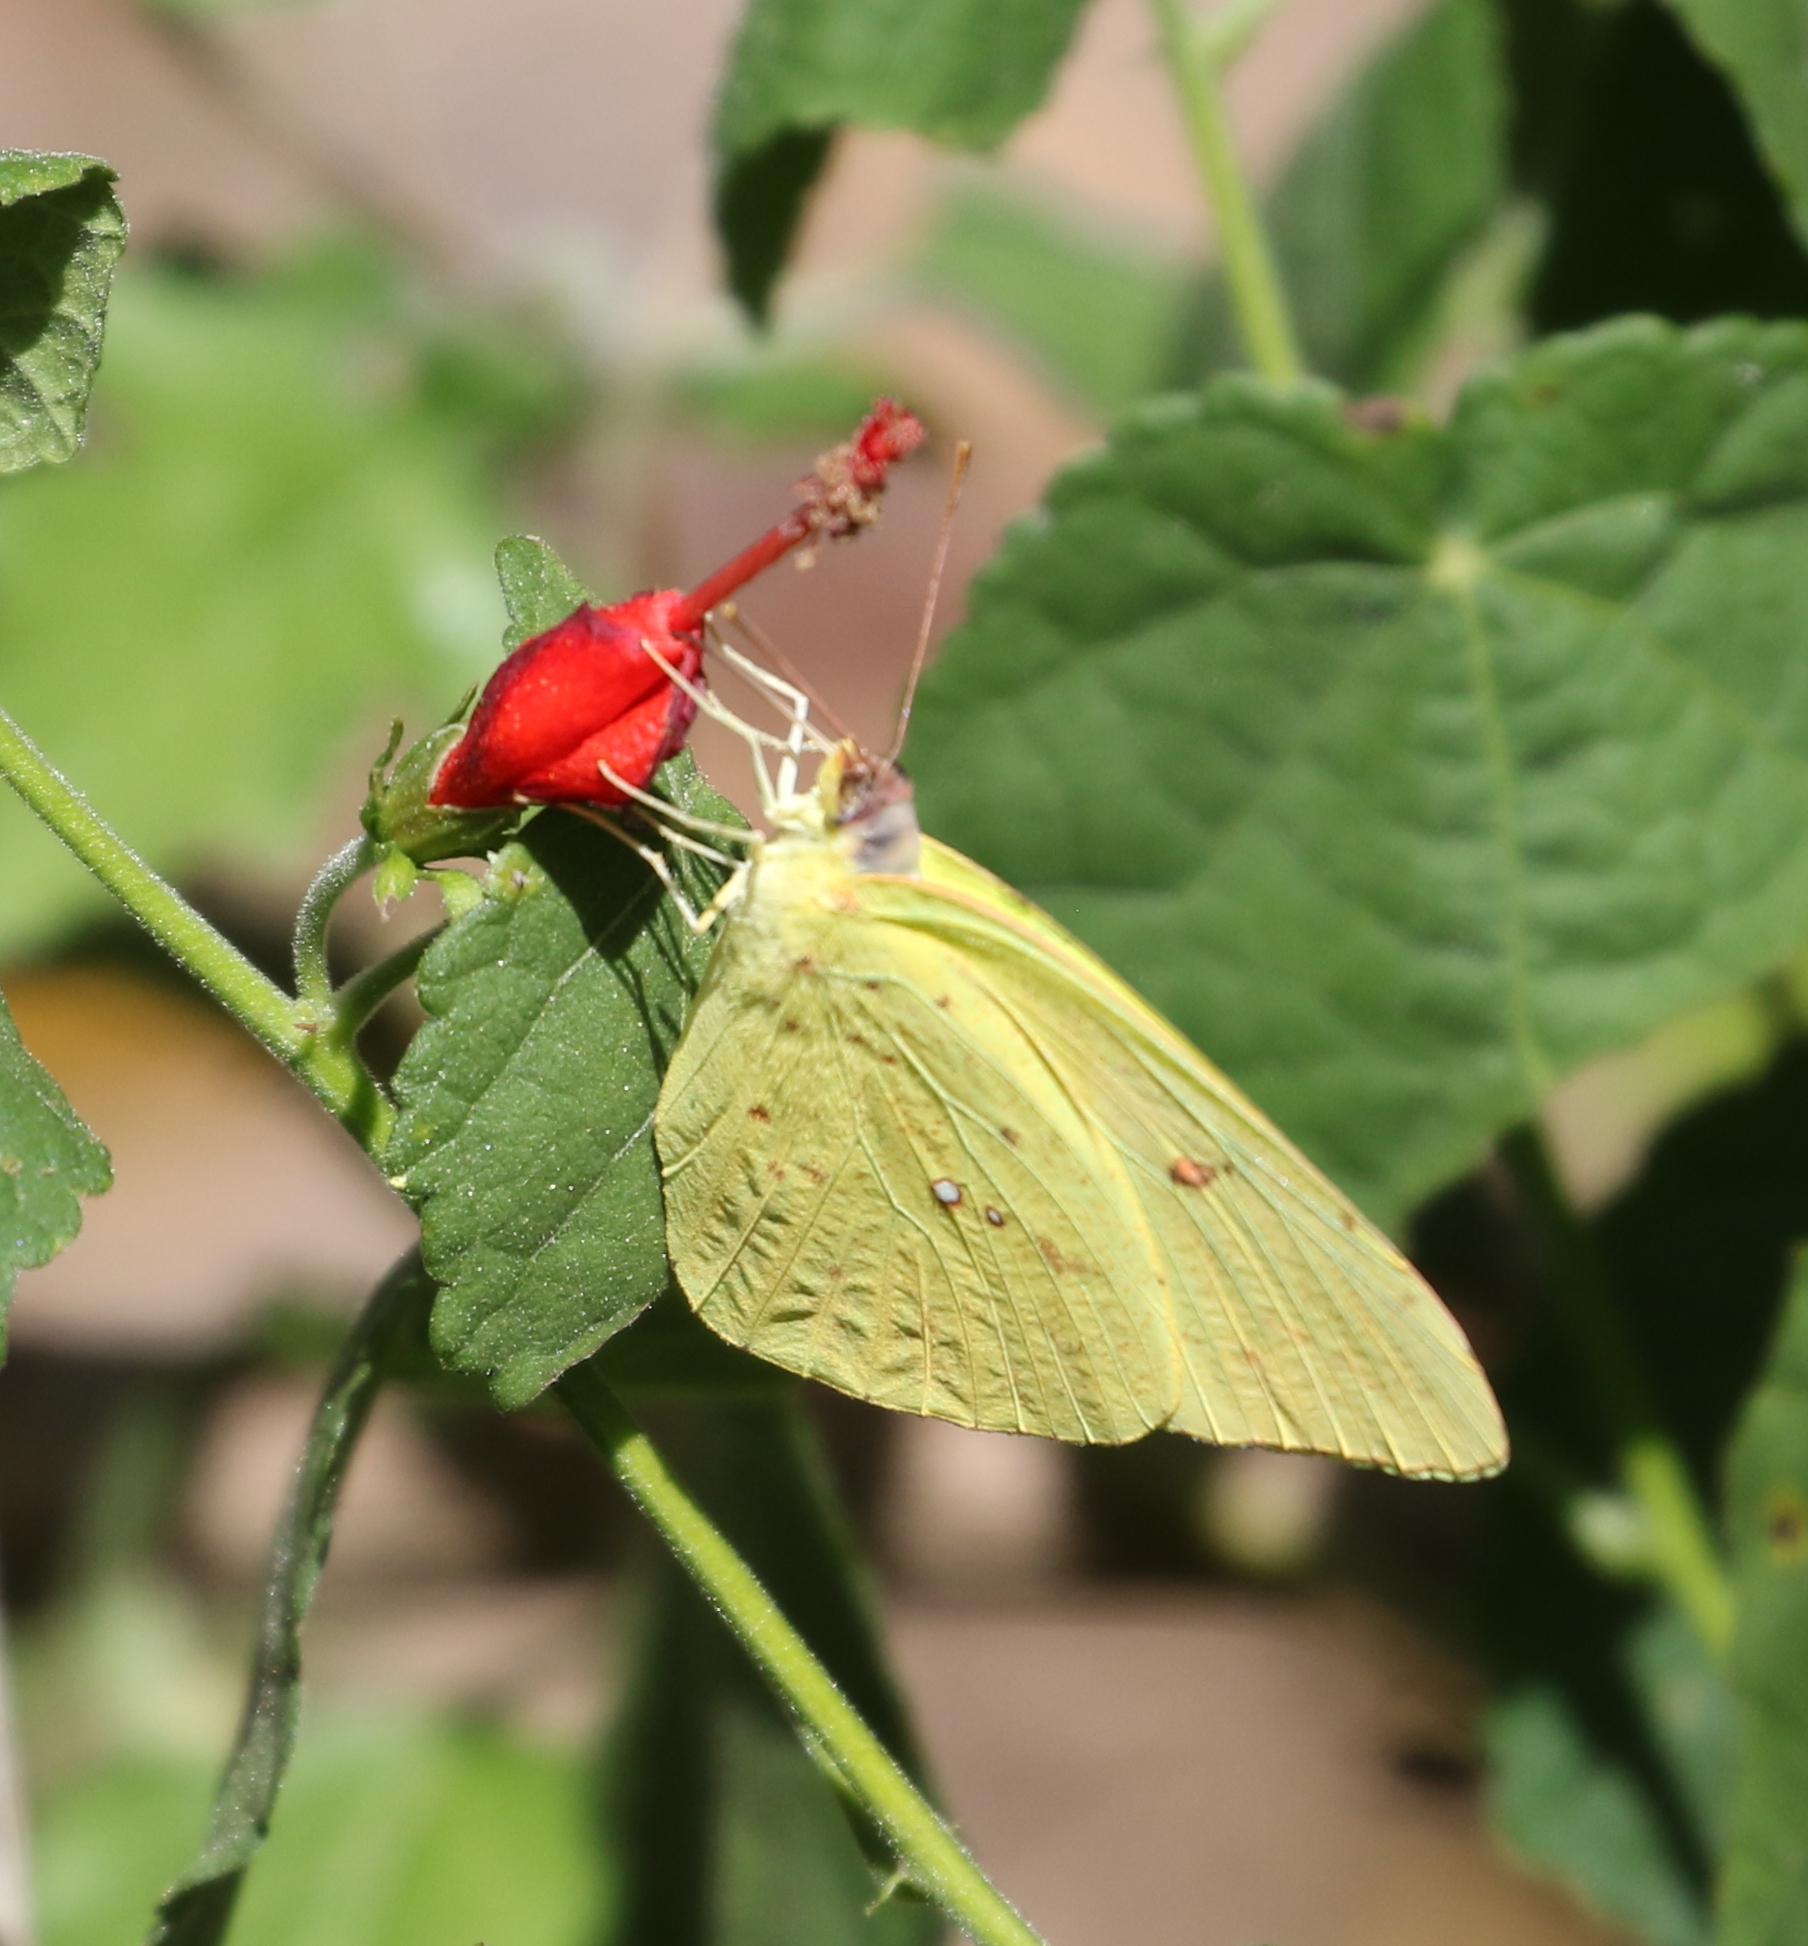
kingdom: Animalia
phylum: Arthropoda
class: Insecta
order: Lepidoptera
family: Pieridae
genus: Phoebis
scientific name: Phoebis sennae
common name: Cloudless sulphur
